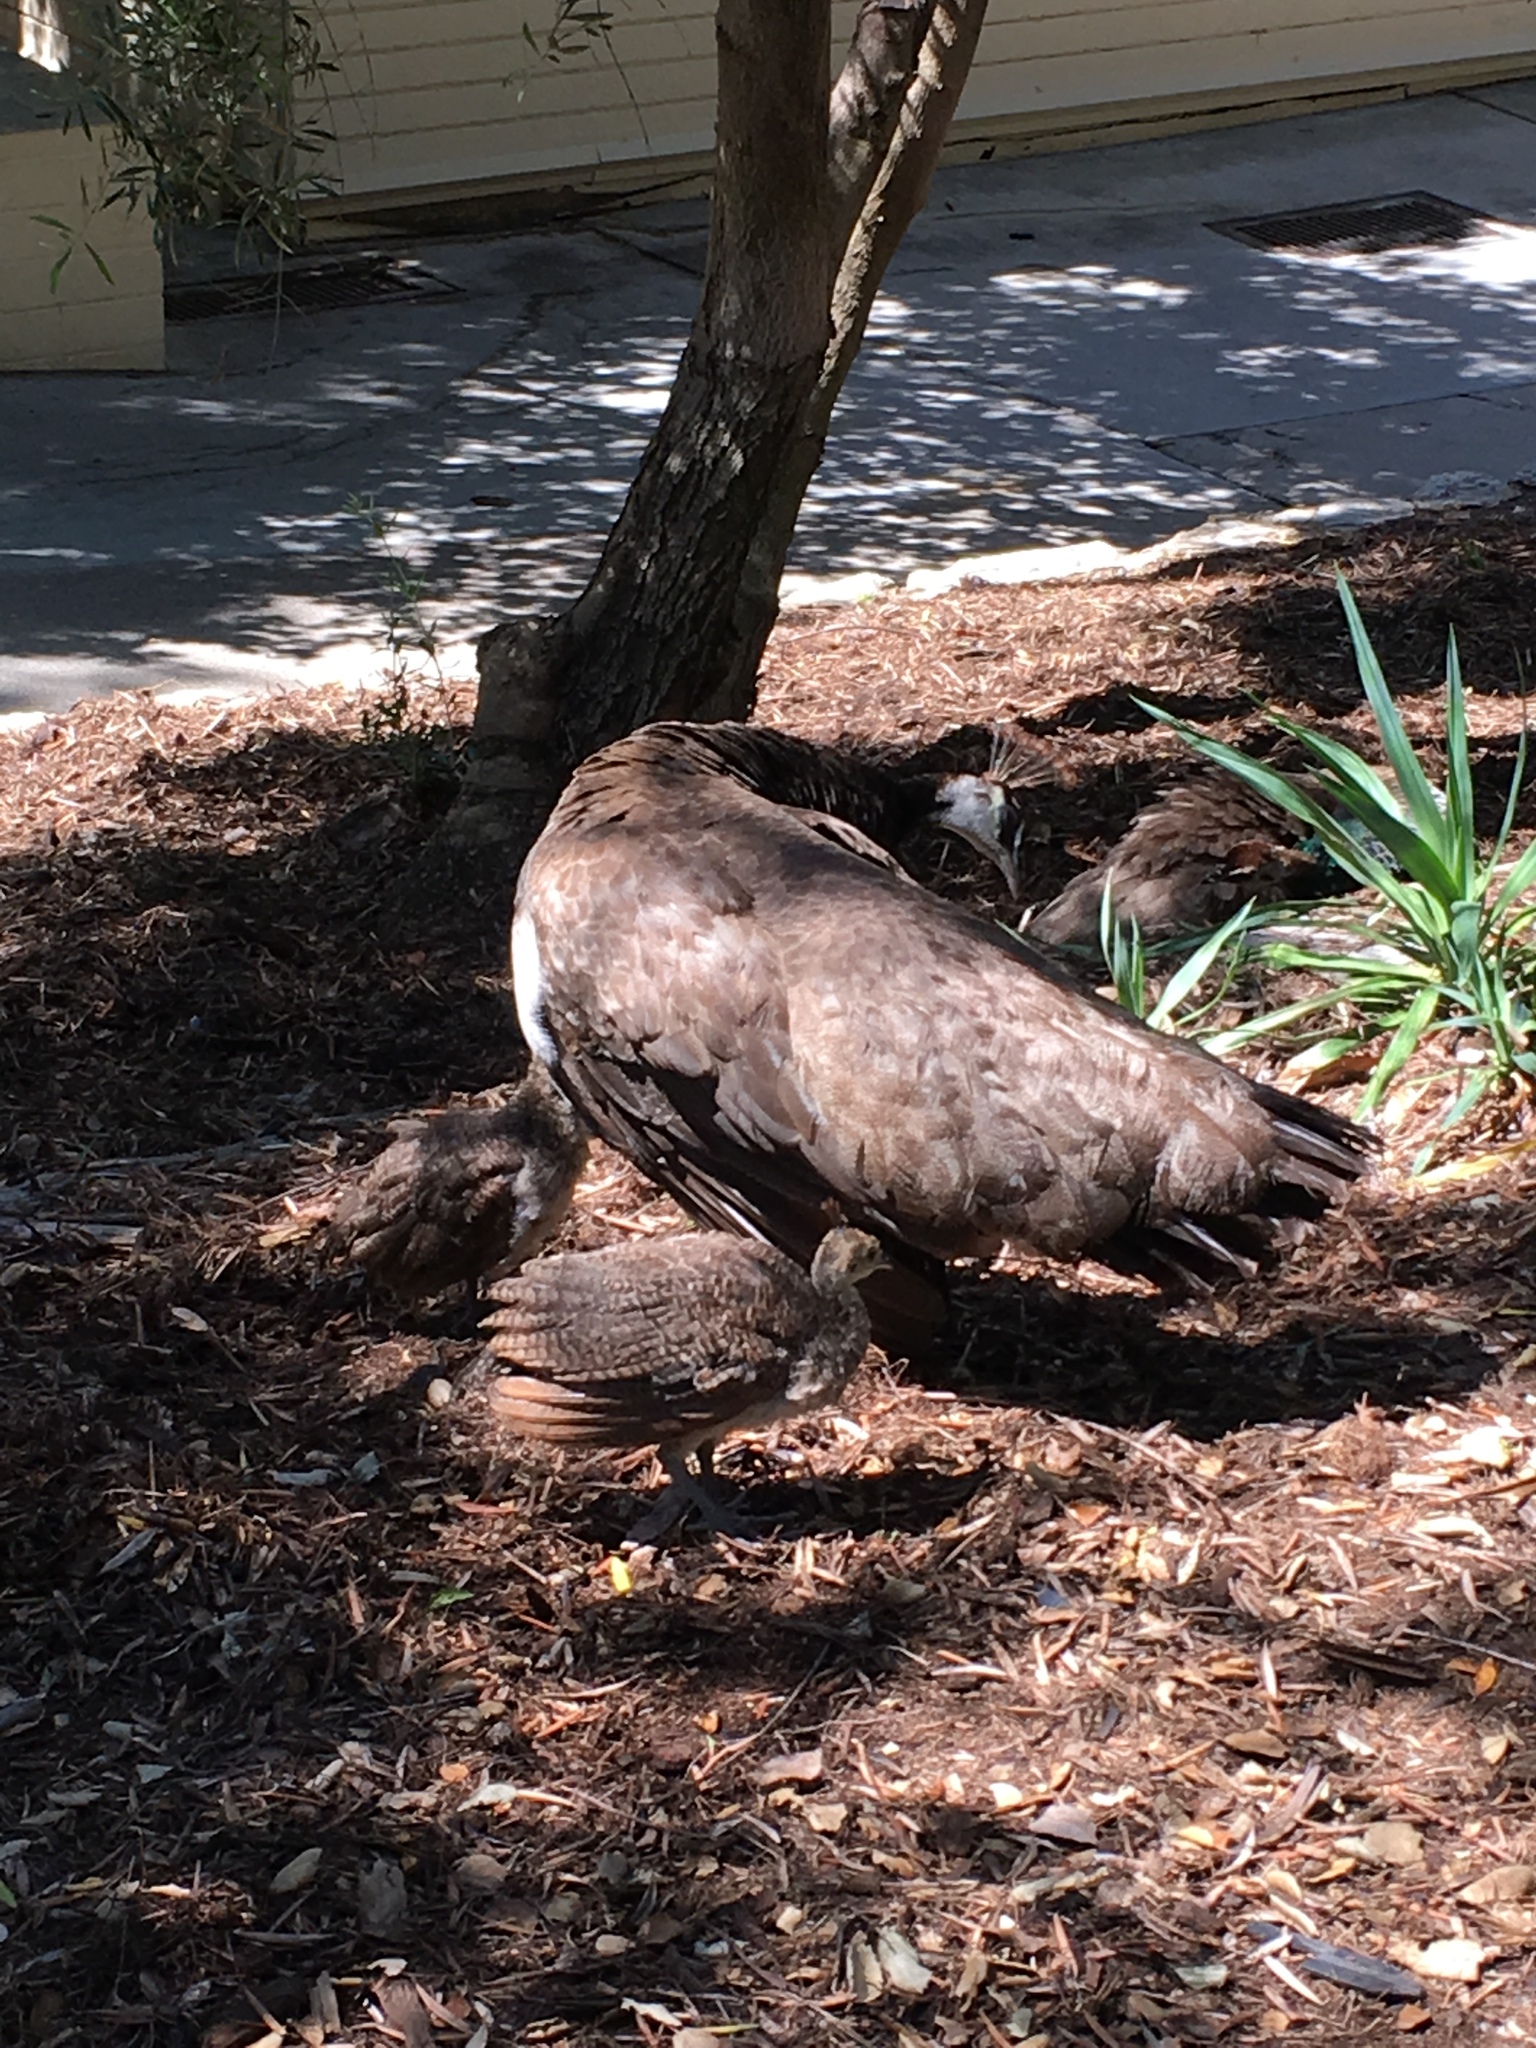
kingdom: Animalia
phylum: Chordata
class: Aves
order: Galliformes
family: Phasianidae
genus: Pavo
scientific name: Pavo cristatus
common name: Indian peafowl
